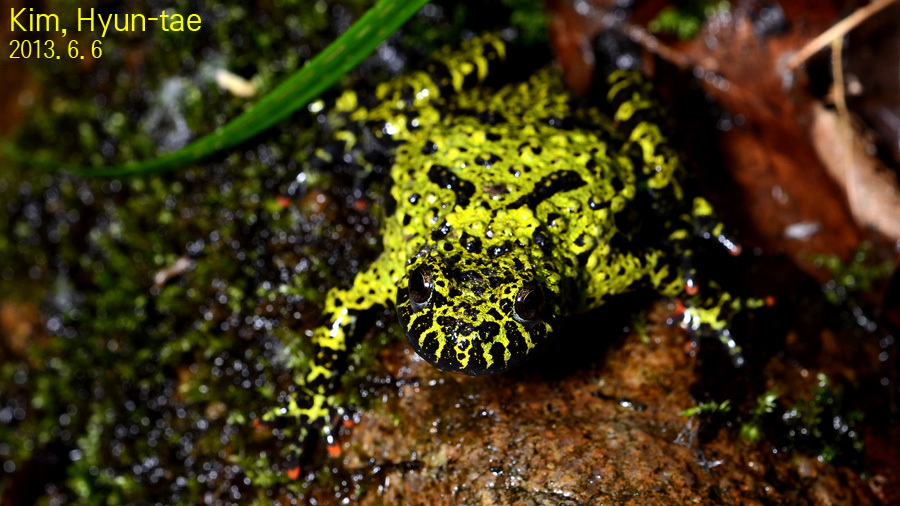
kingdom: Animalia
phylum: Chordata
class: Amphibia
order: Anura
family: Bombinatoridae
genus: Bombina
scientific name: Bombina orientalis
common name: Oriental firebelly toad
